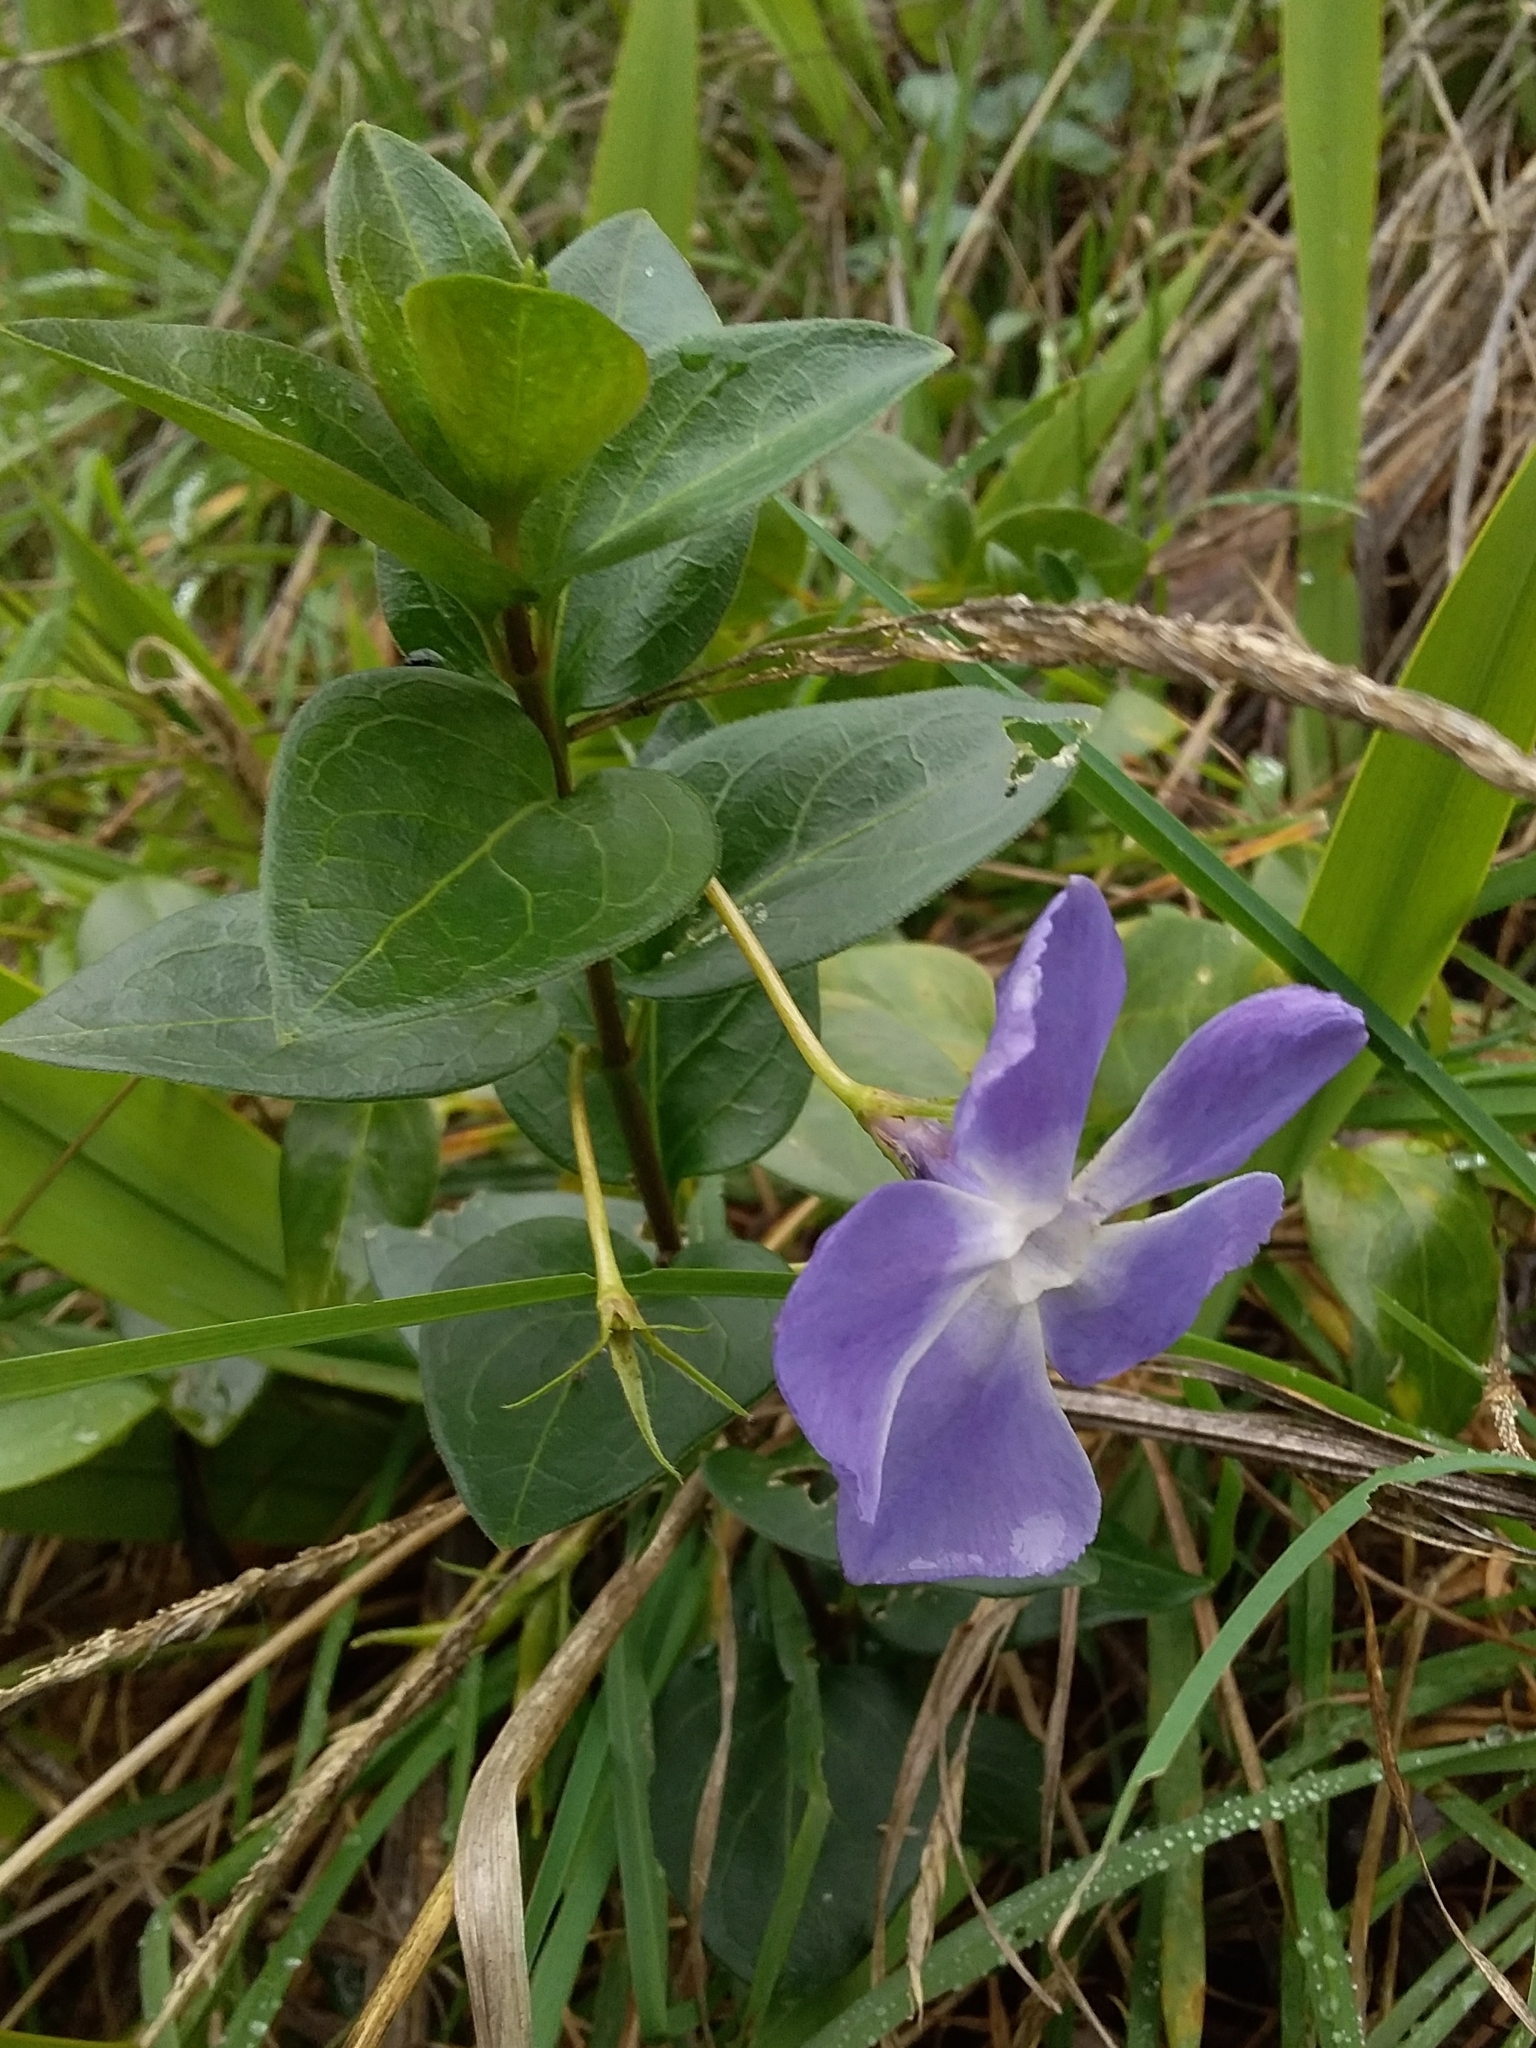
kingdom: Plantae
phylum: Tracheophyta
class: Magnoliopsida
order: Gentianales
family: Apocynaceae
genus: Vinca
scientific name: Vinca major
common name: Greater periwinkle
